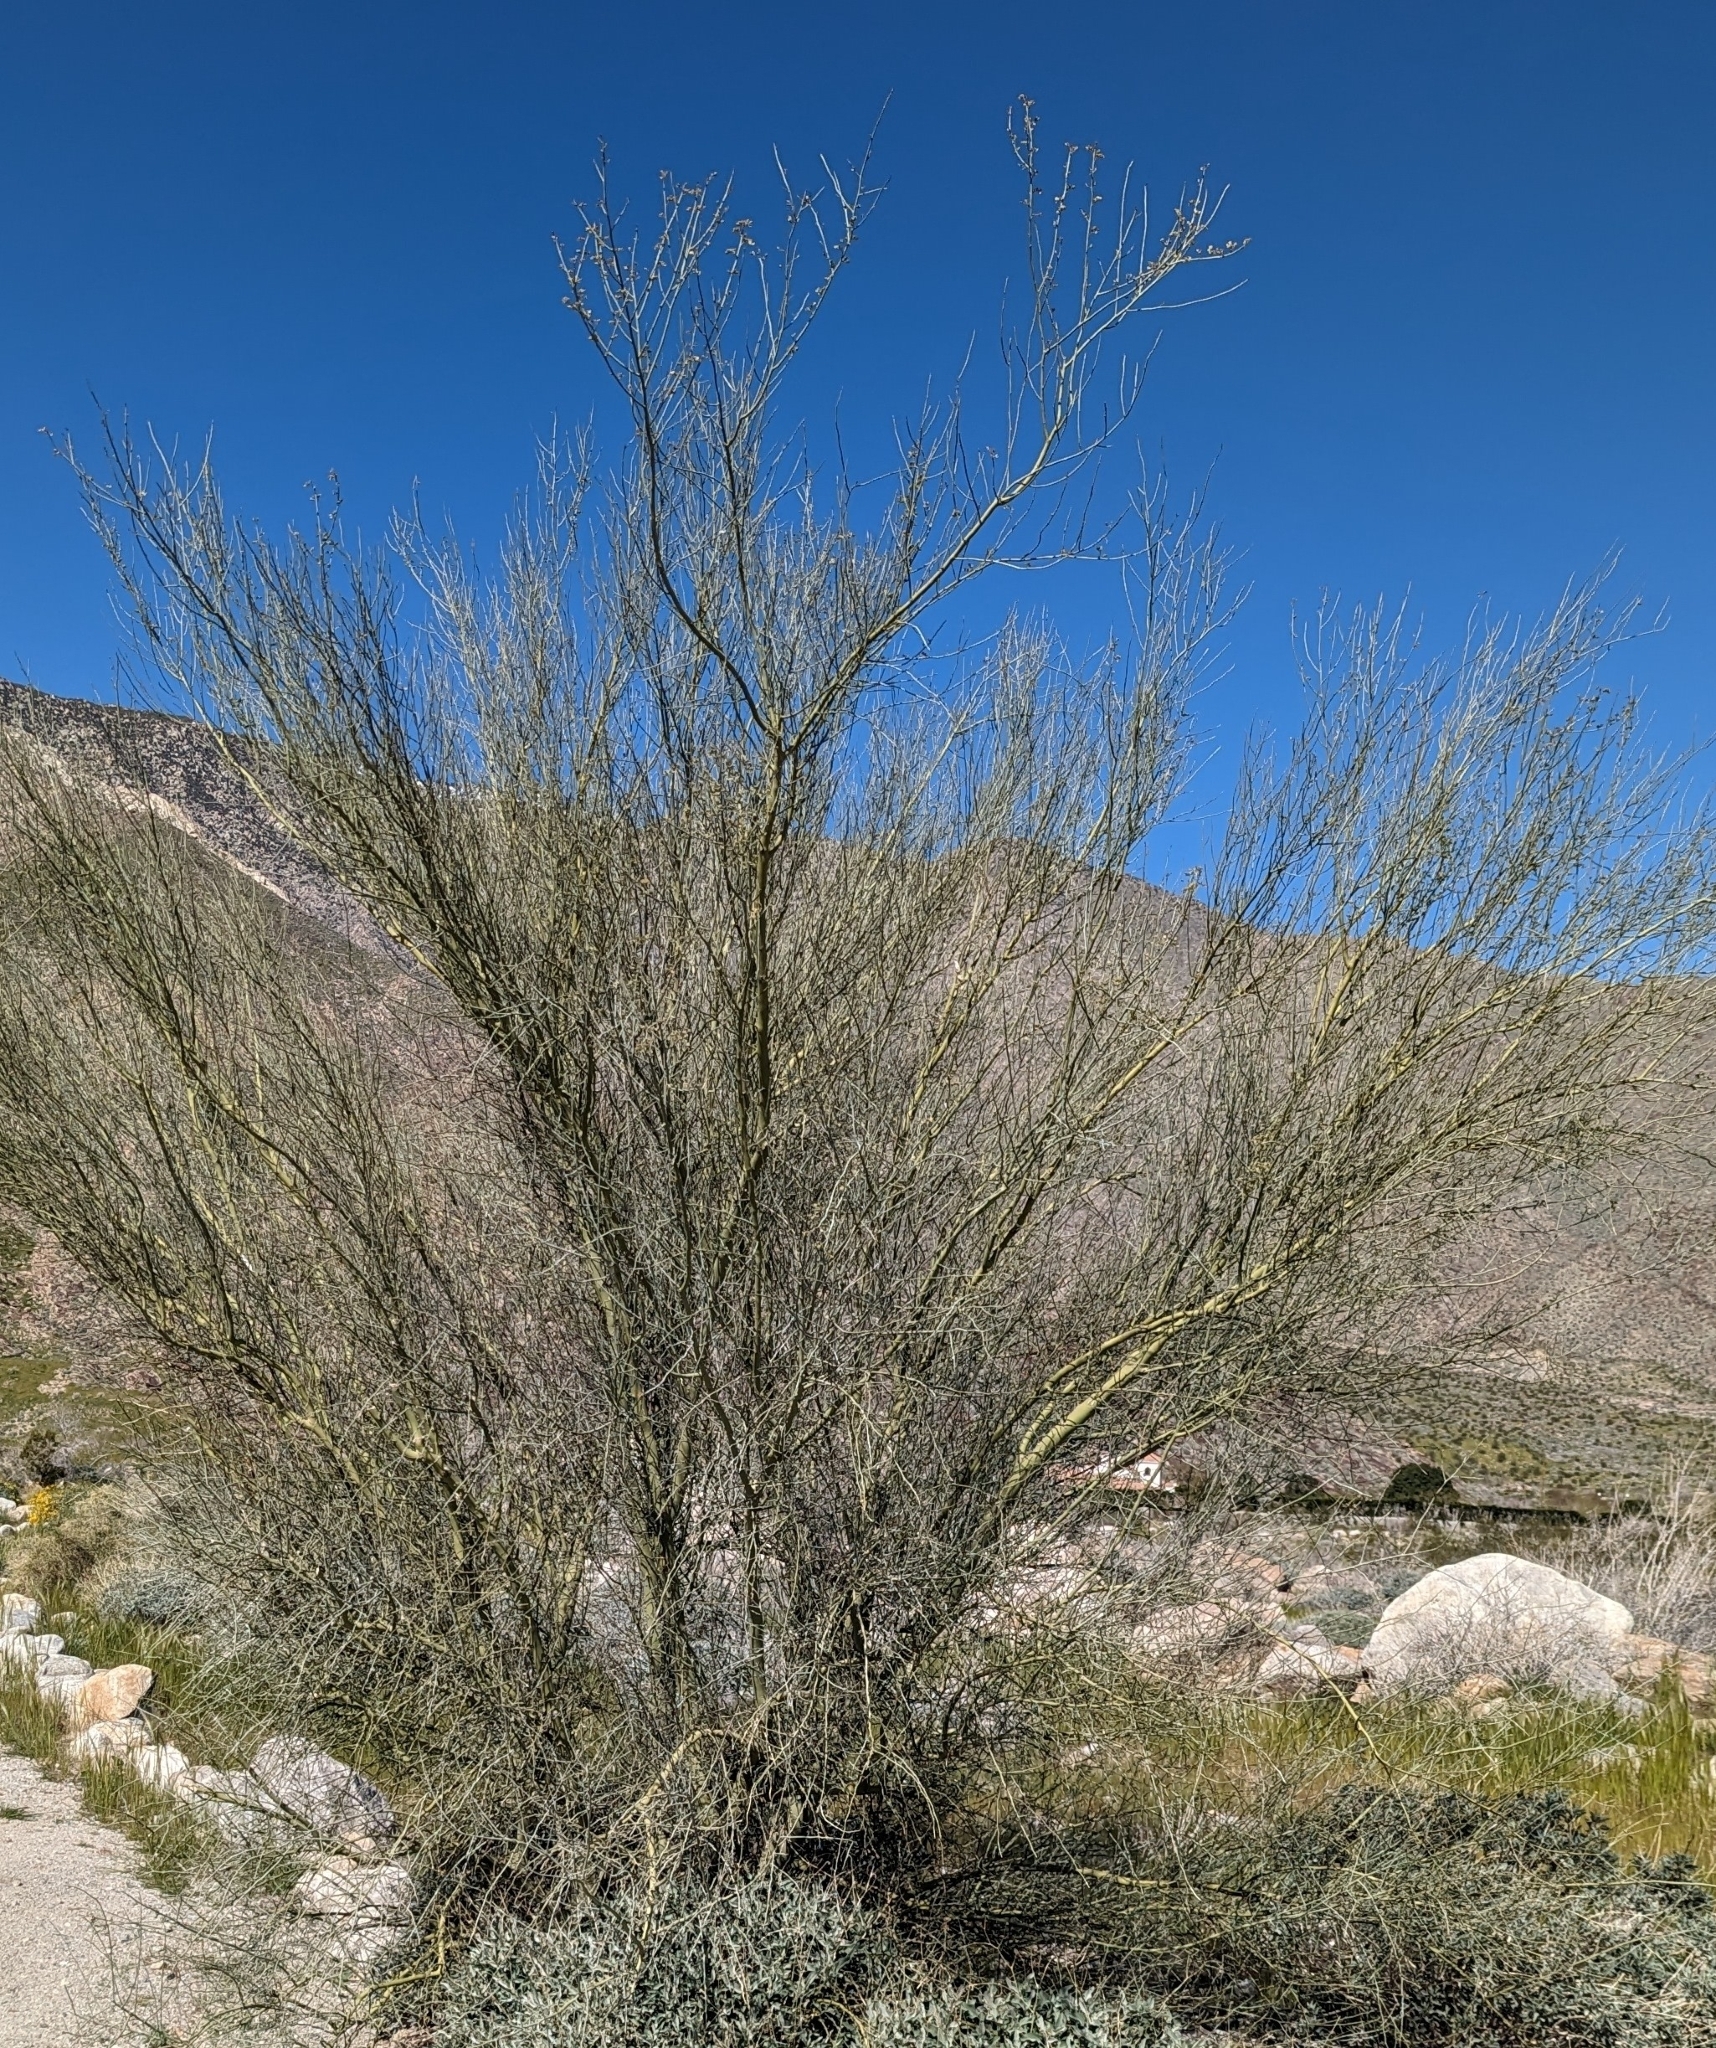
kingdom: Plantae
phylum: Tracheophyta
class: Magnoliopsida
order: Fabales
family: Fabaceae
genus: Parkinsonia
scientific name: Parkinsonia florida
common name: Blue paloverde
